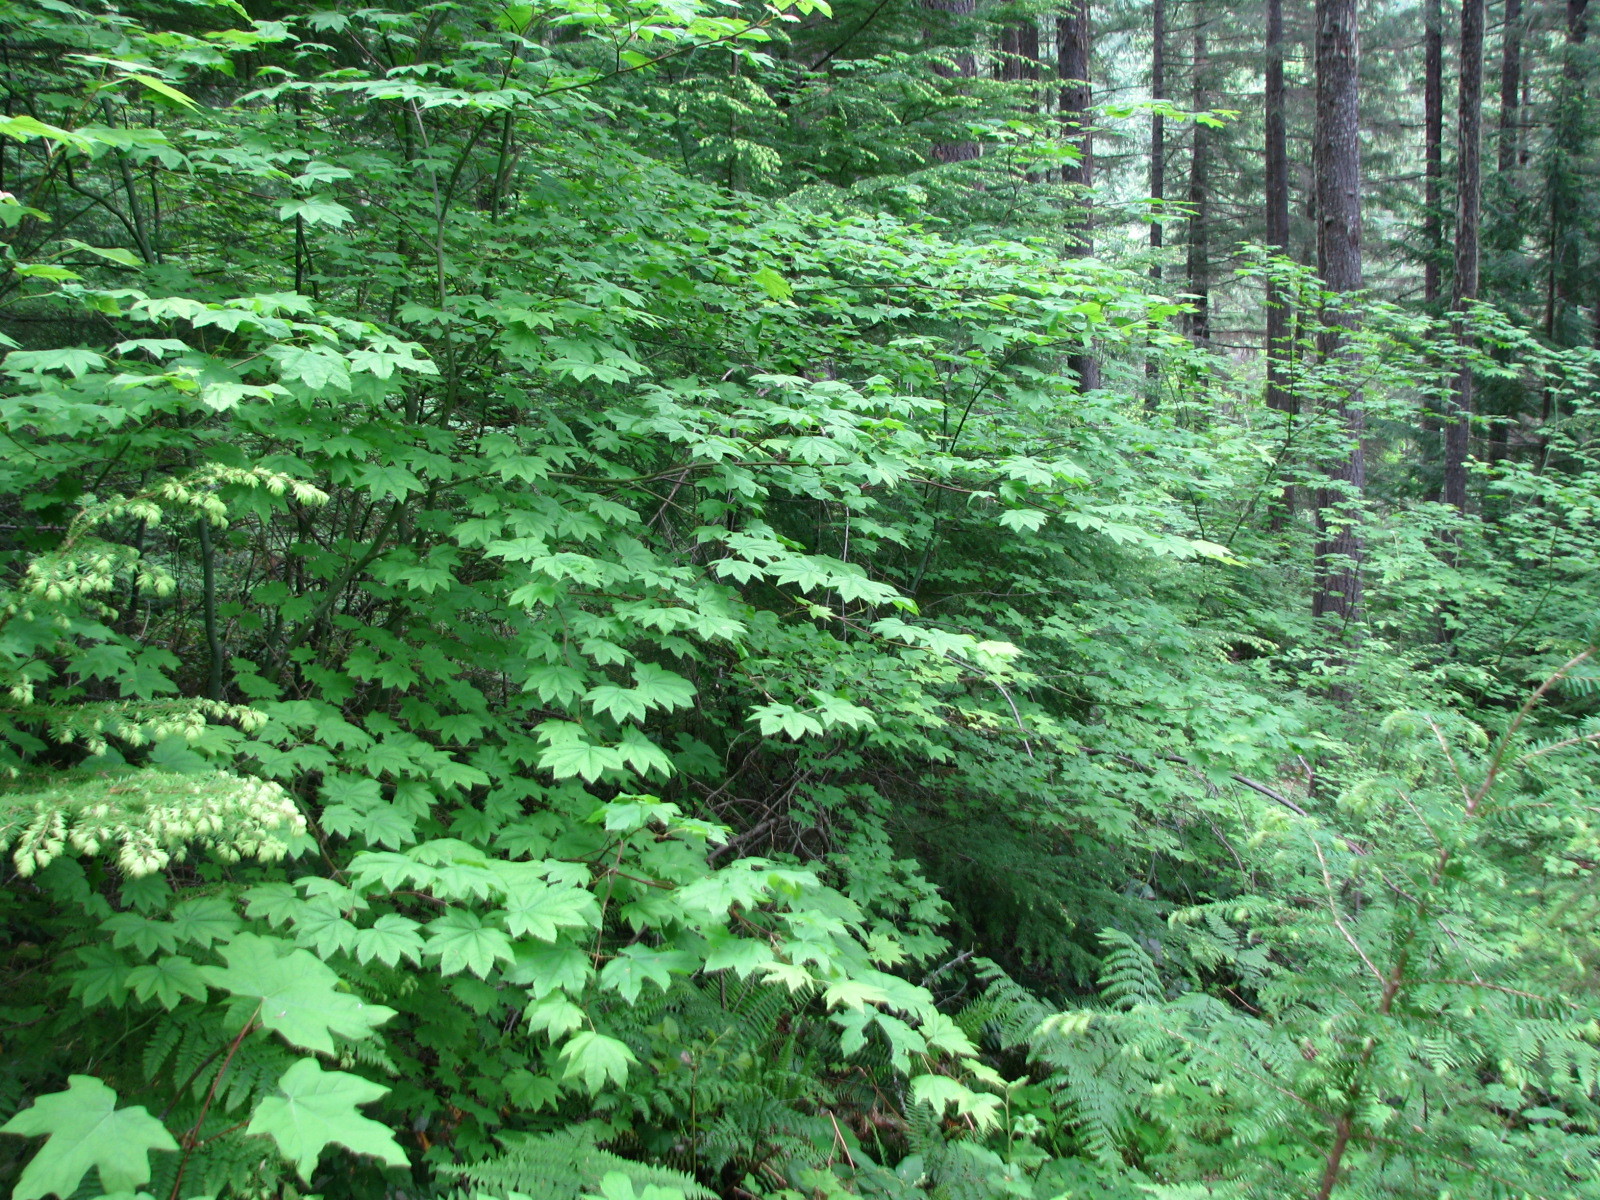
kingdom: Plantae
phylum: Tracheophyta
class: Magnoliopsida
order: Sapindales
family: Sapindaceae
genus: Acer
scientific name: Acer circinatum
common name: Vine maple
